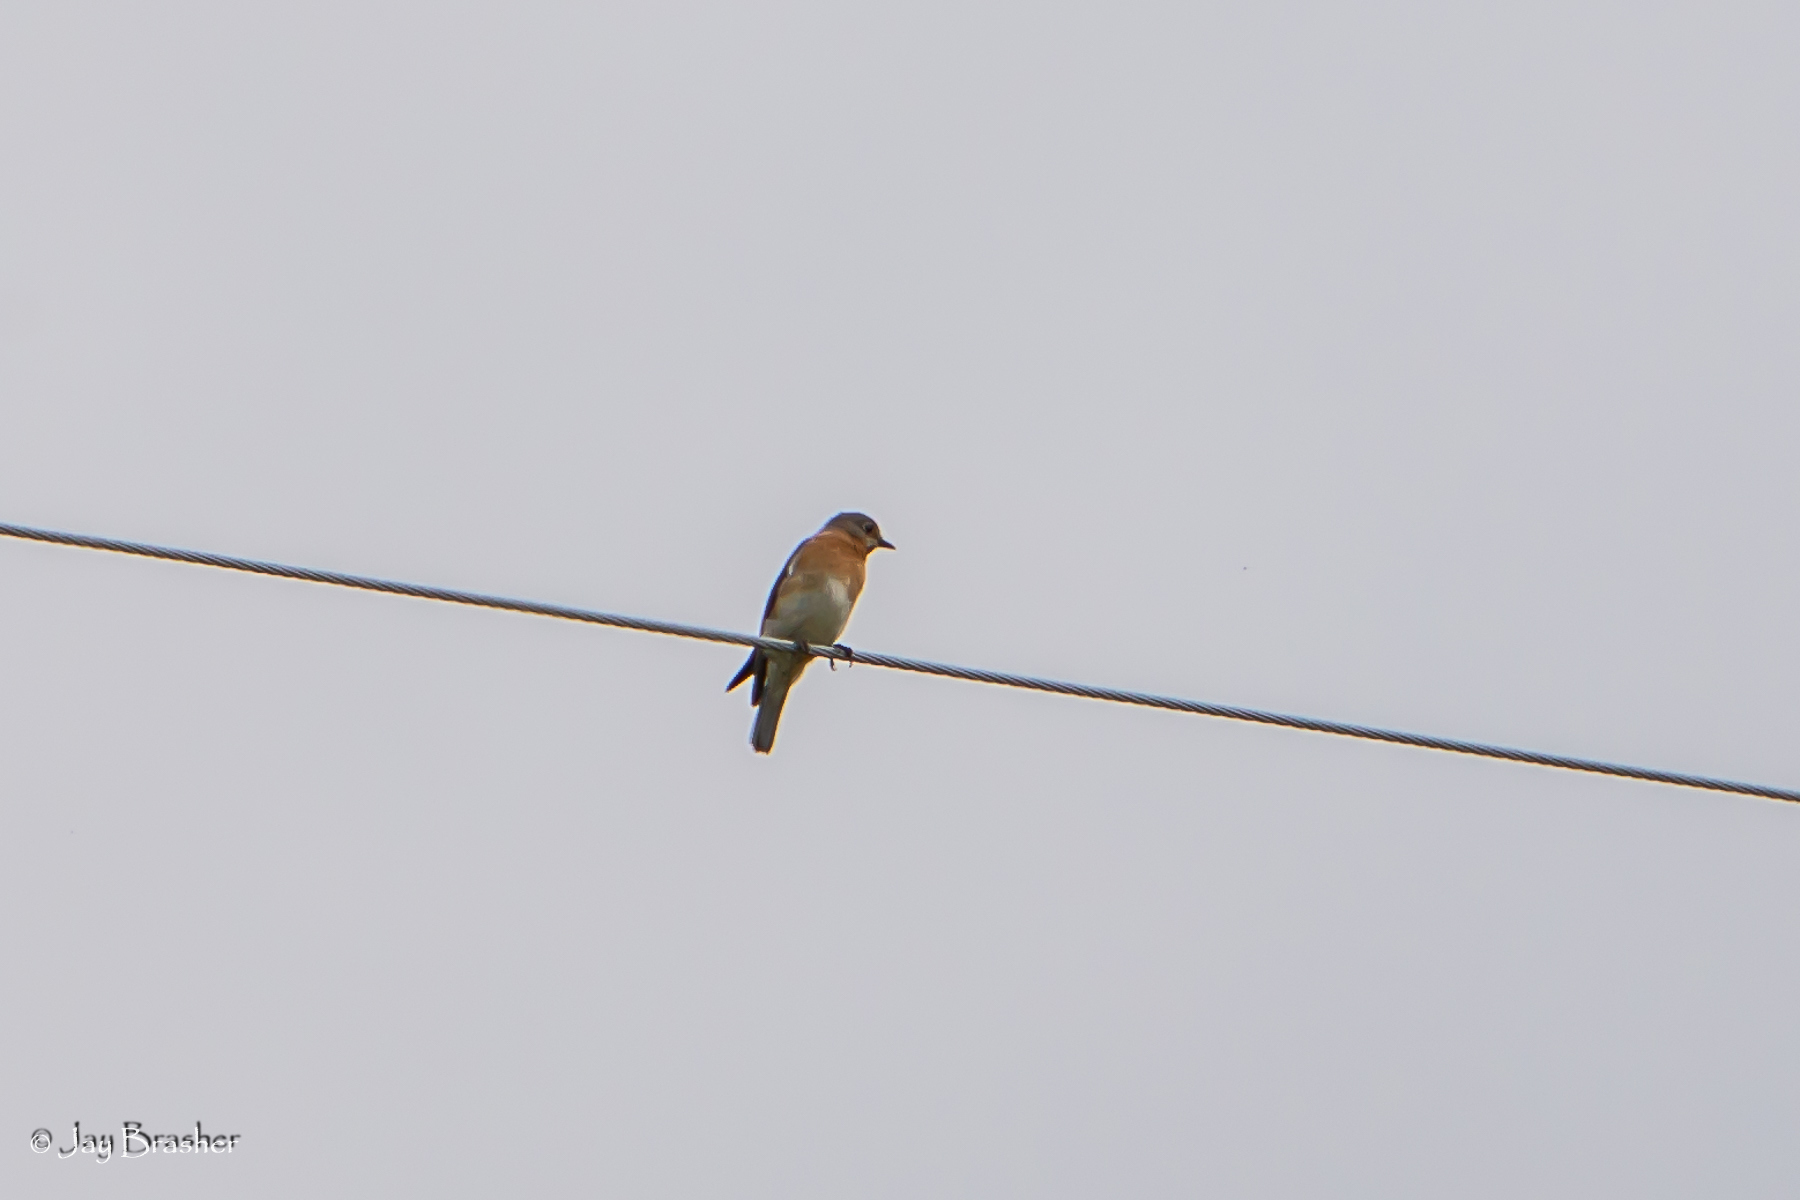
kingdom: Animalia
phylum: Chordata
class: Aves
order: Passeriformes
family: Turdidae
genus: Sialia
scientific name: Sialia sialis
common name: Eastern bluebird
